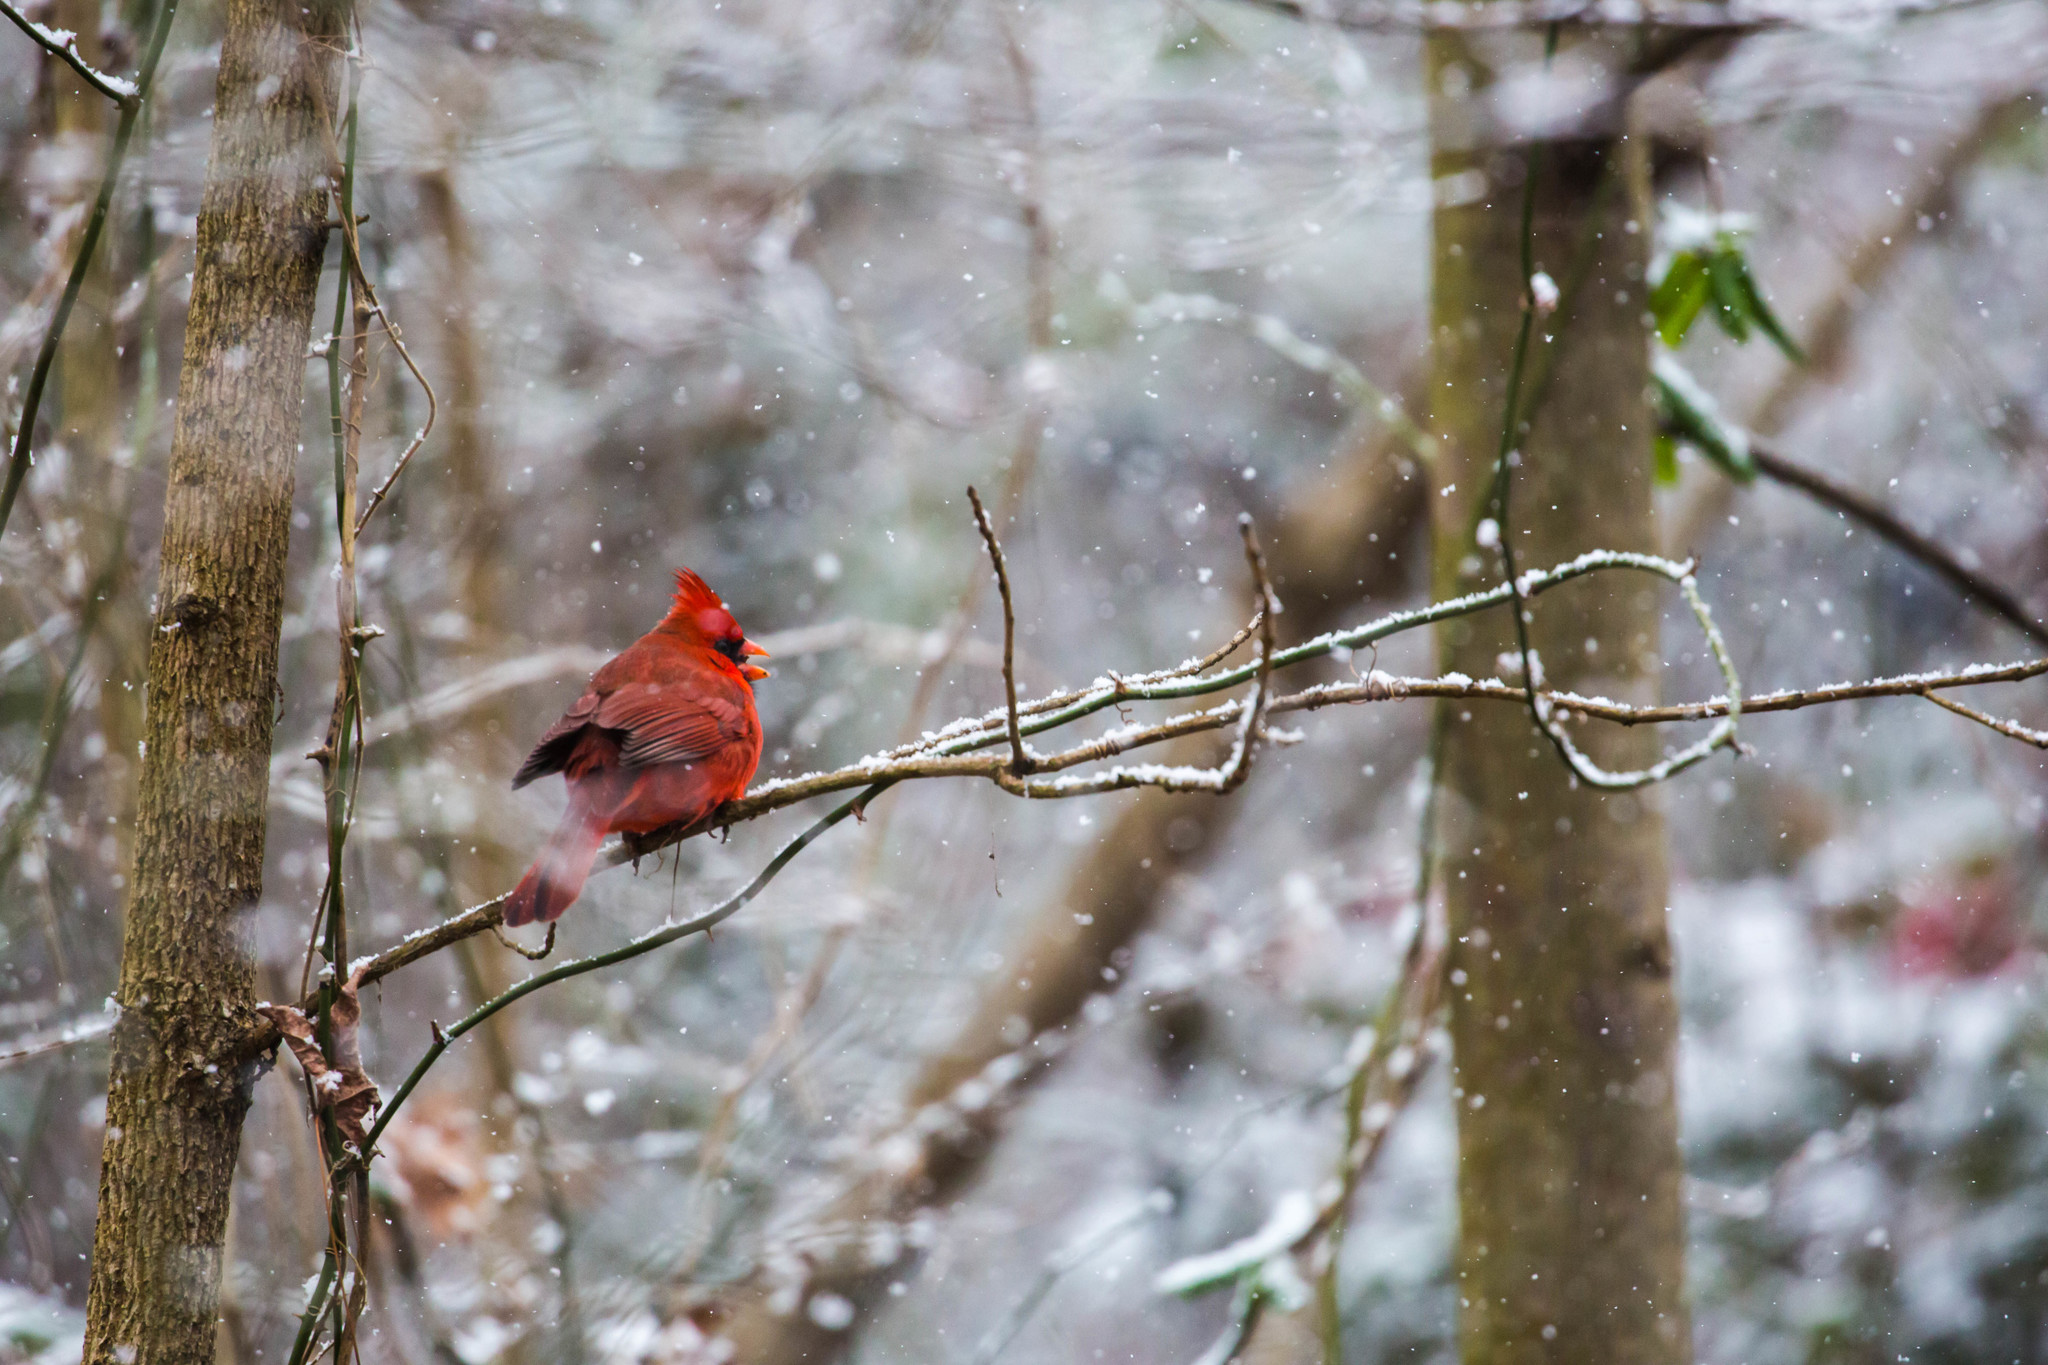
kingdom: Animalia
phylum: Chordata
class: Aves
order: Passeriformes
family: Cardinalidae
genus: Cardinalis
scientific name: Cardinalis cardinalis
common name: Northern cardinal
